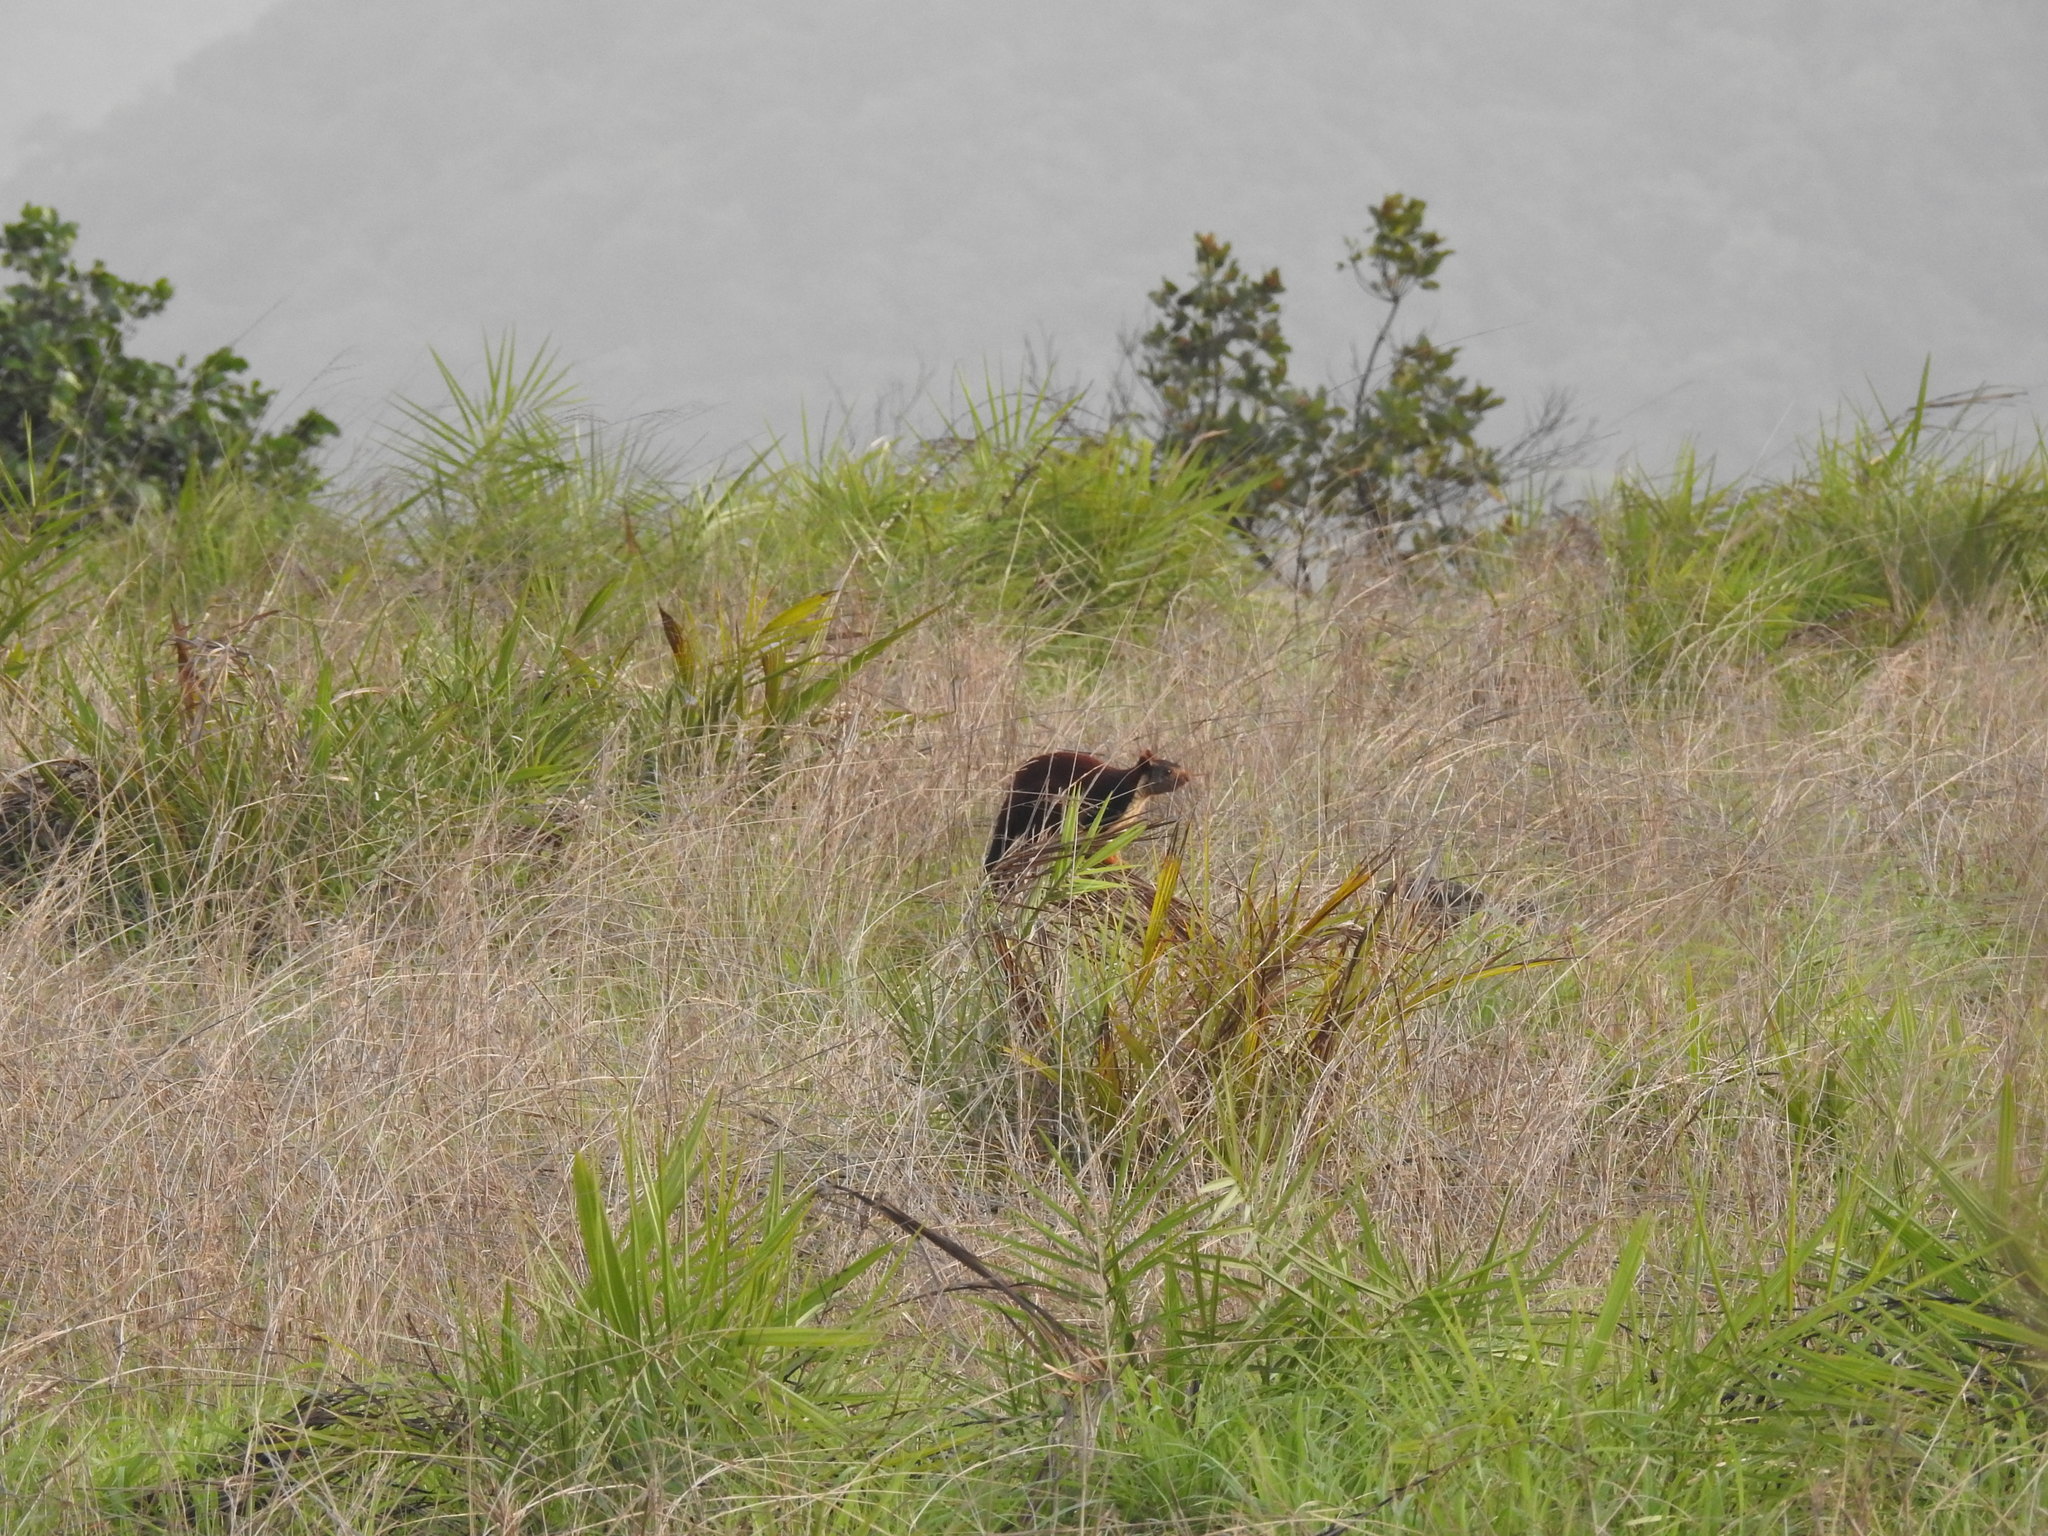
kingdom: Animalia
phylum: Chordata
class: Mammalia
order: Rodentia
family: Sciuridae
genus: Ratufa
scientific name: Ratufa indica
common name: Indian giant squirrel
